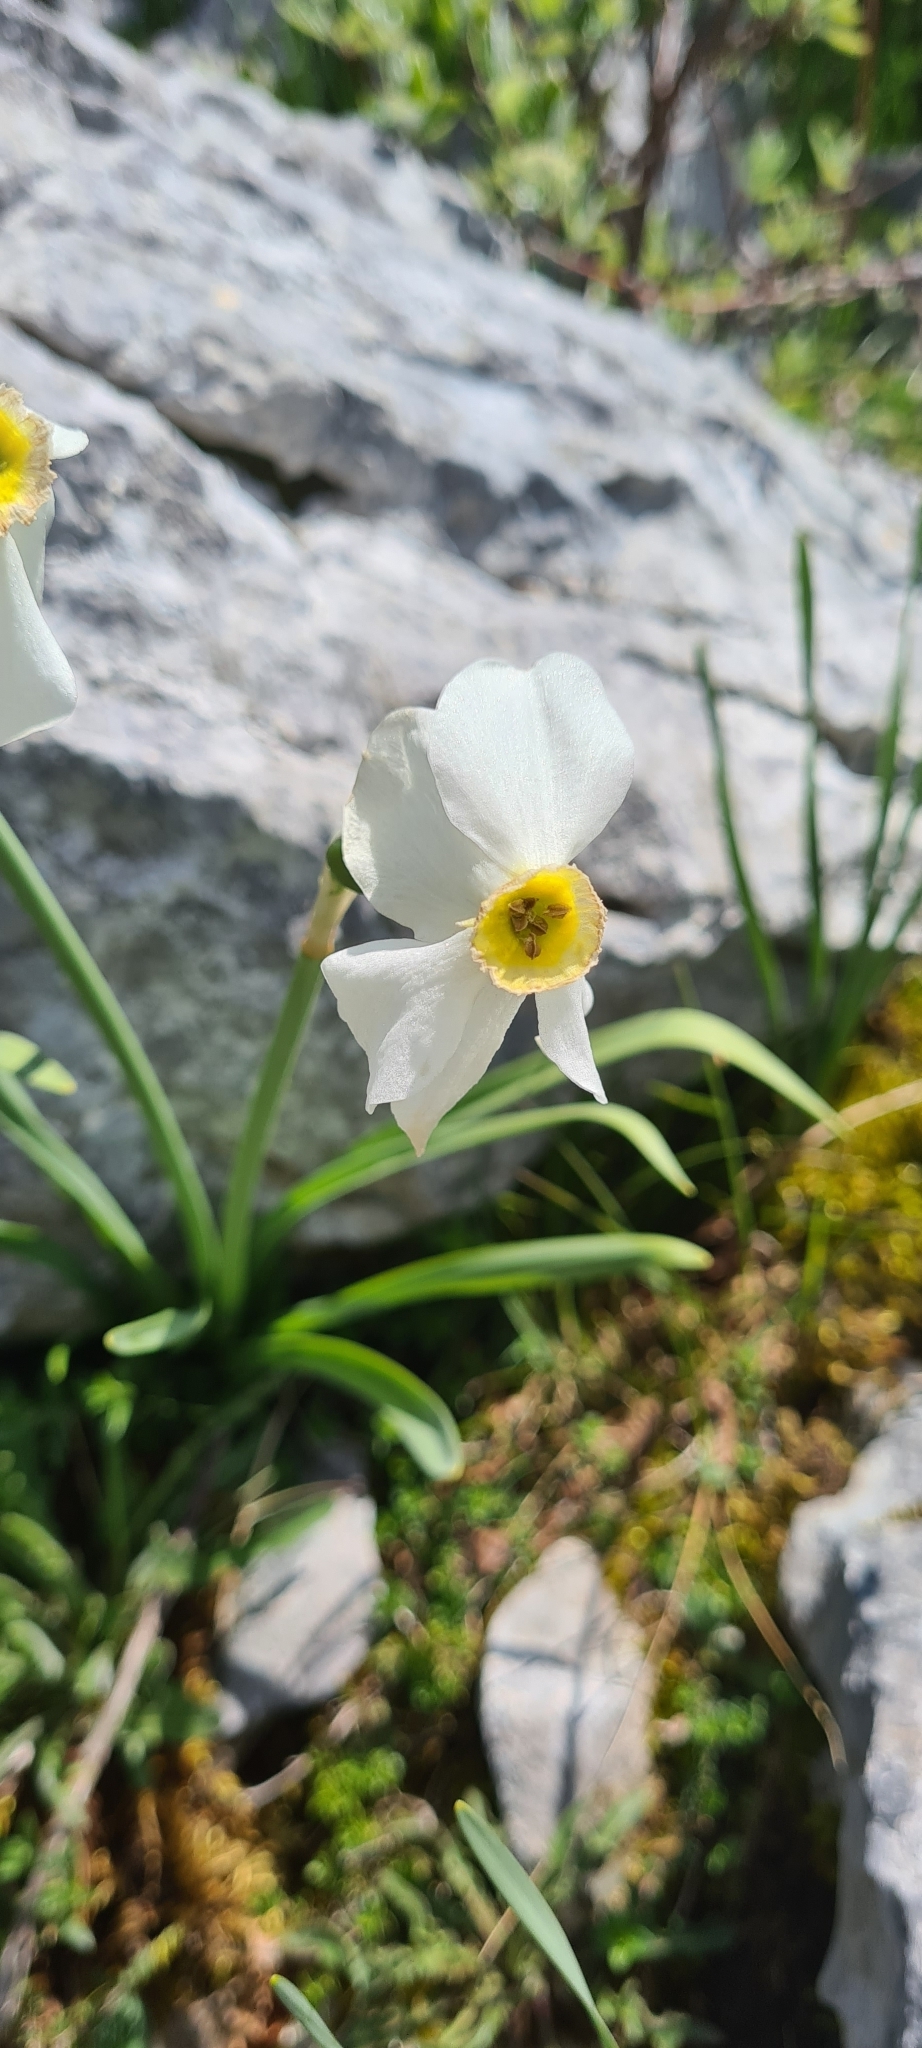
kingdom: Plantae
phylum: Tracheophyta
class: Liliopsida
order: Asparagales
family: Amaryllidaceae
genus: Narcissus
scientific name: Narcissus poeticus
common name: Pheasant's-eye daffodil
